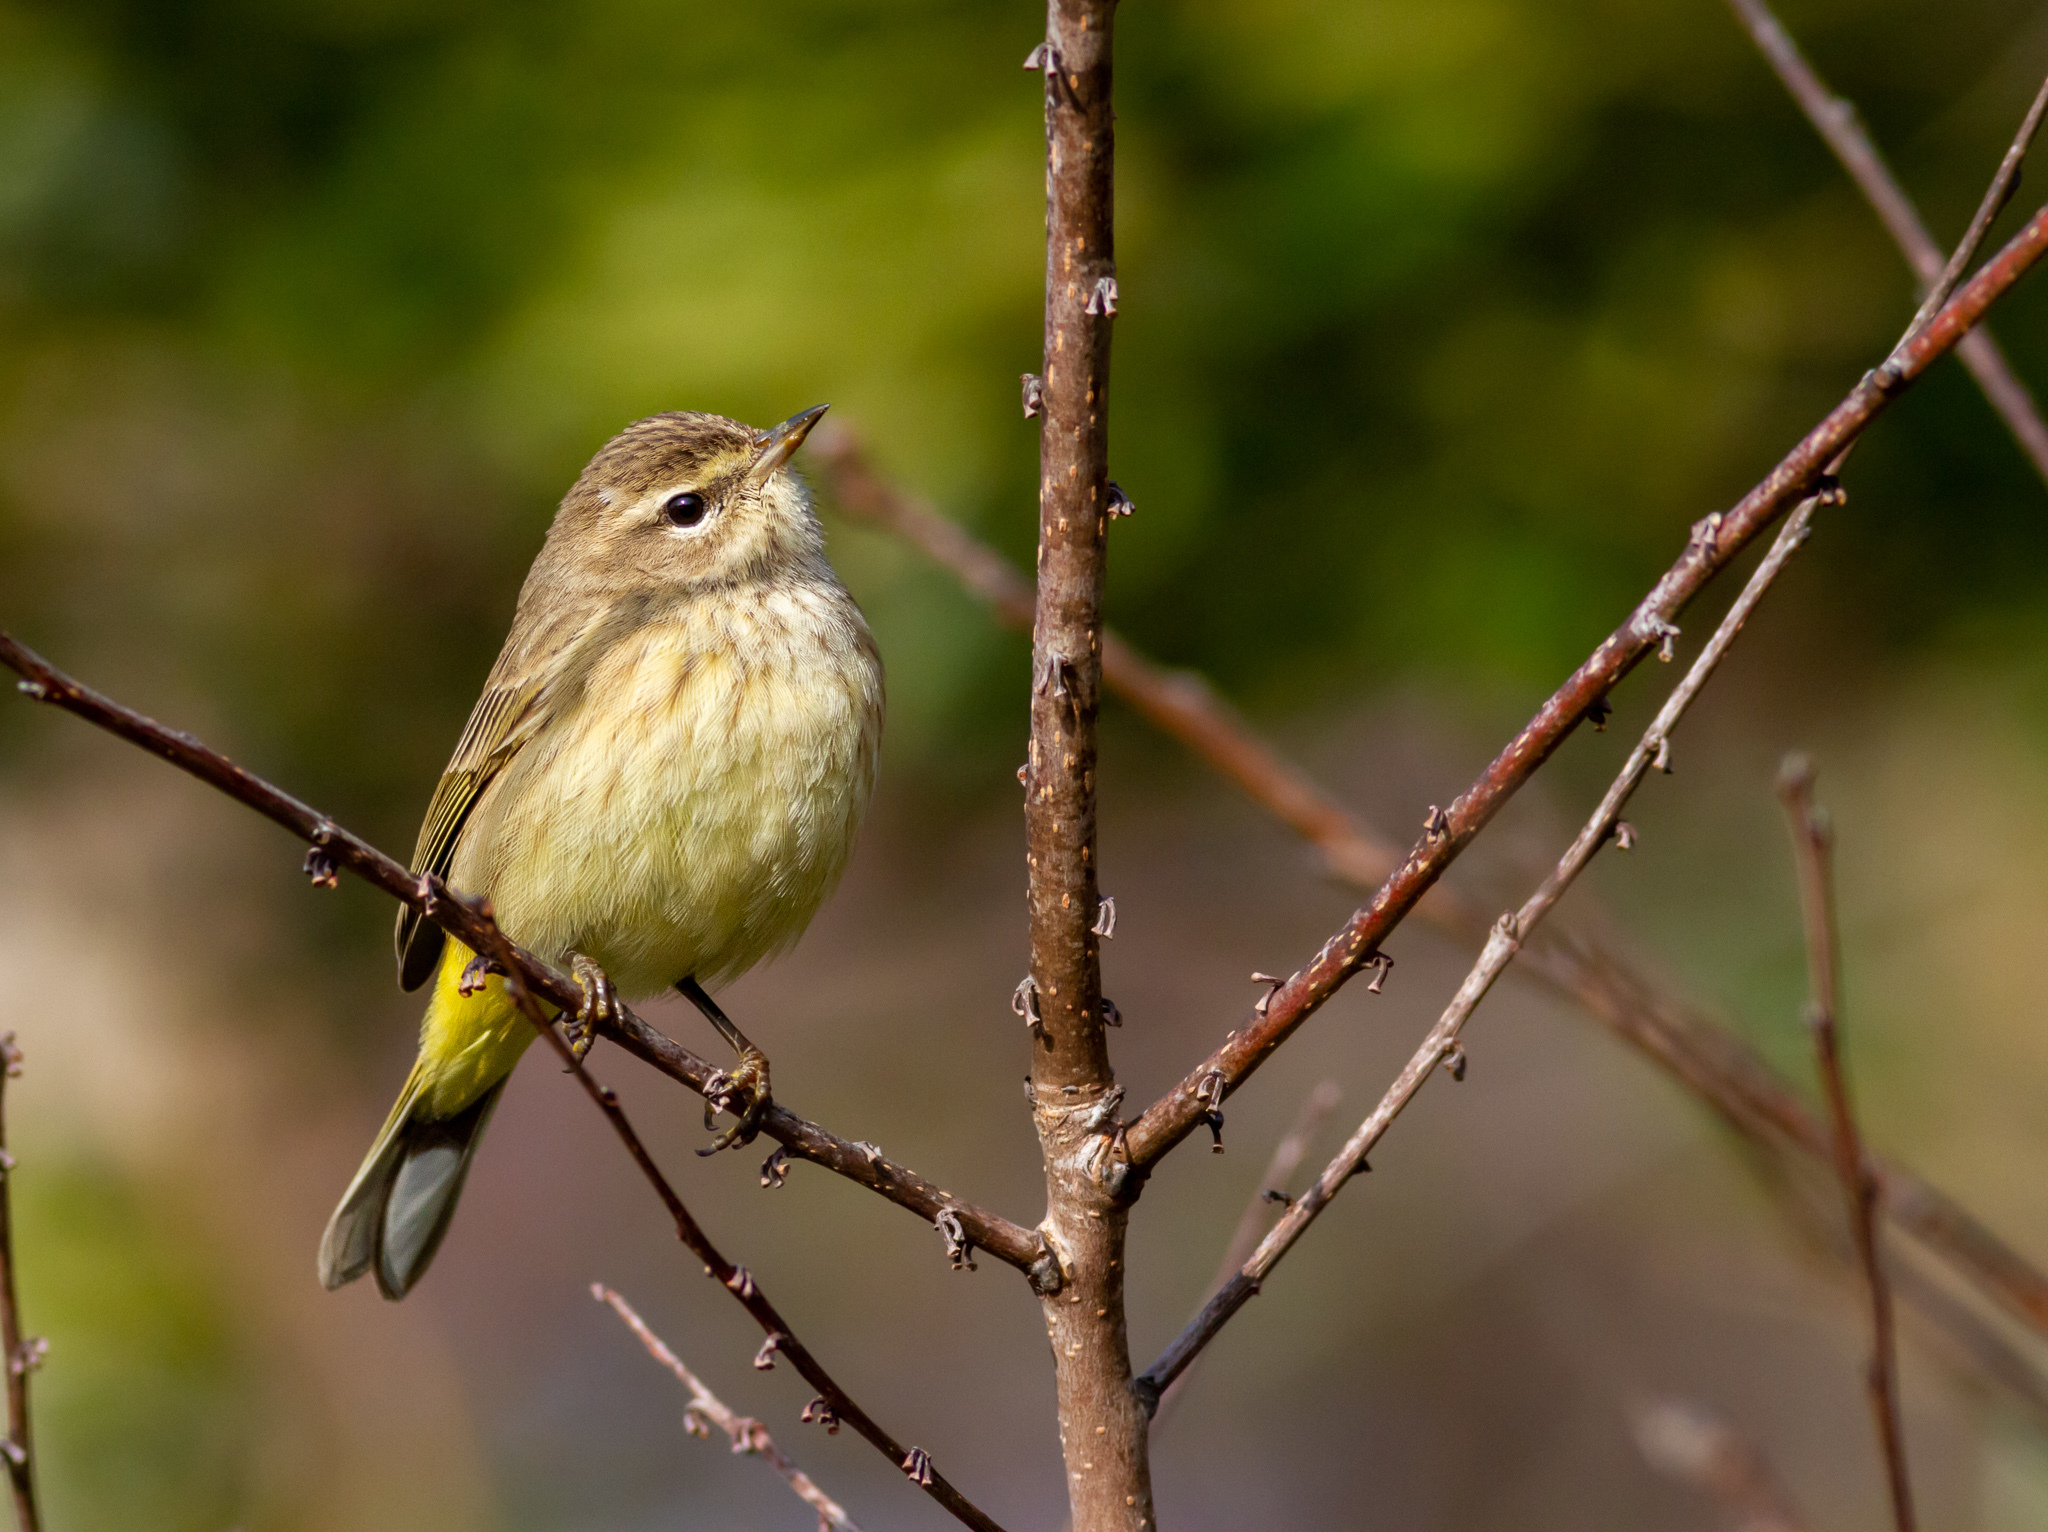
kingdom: Animalia
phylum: Chordata
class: Aves
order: Passeriformes
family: Parulidae
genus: Setophaga
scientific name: Setophaga palmarum
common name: Palm warbler
